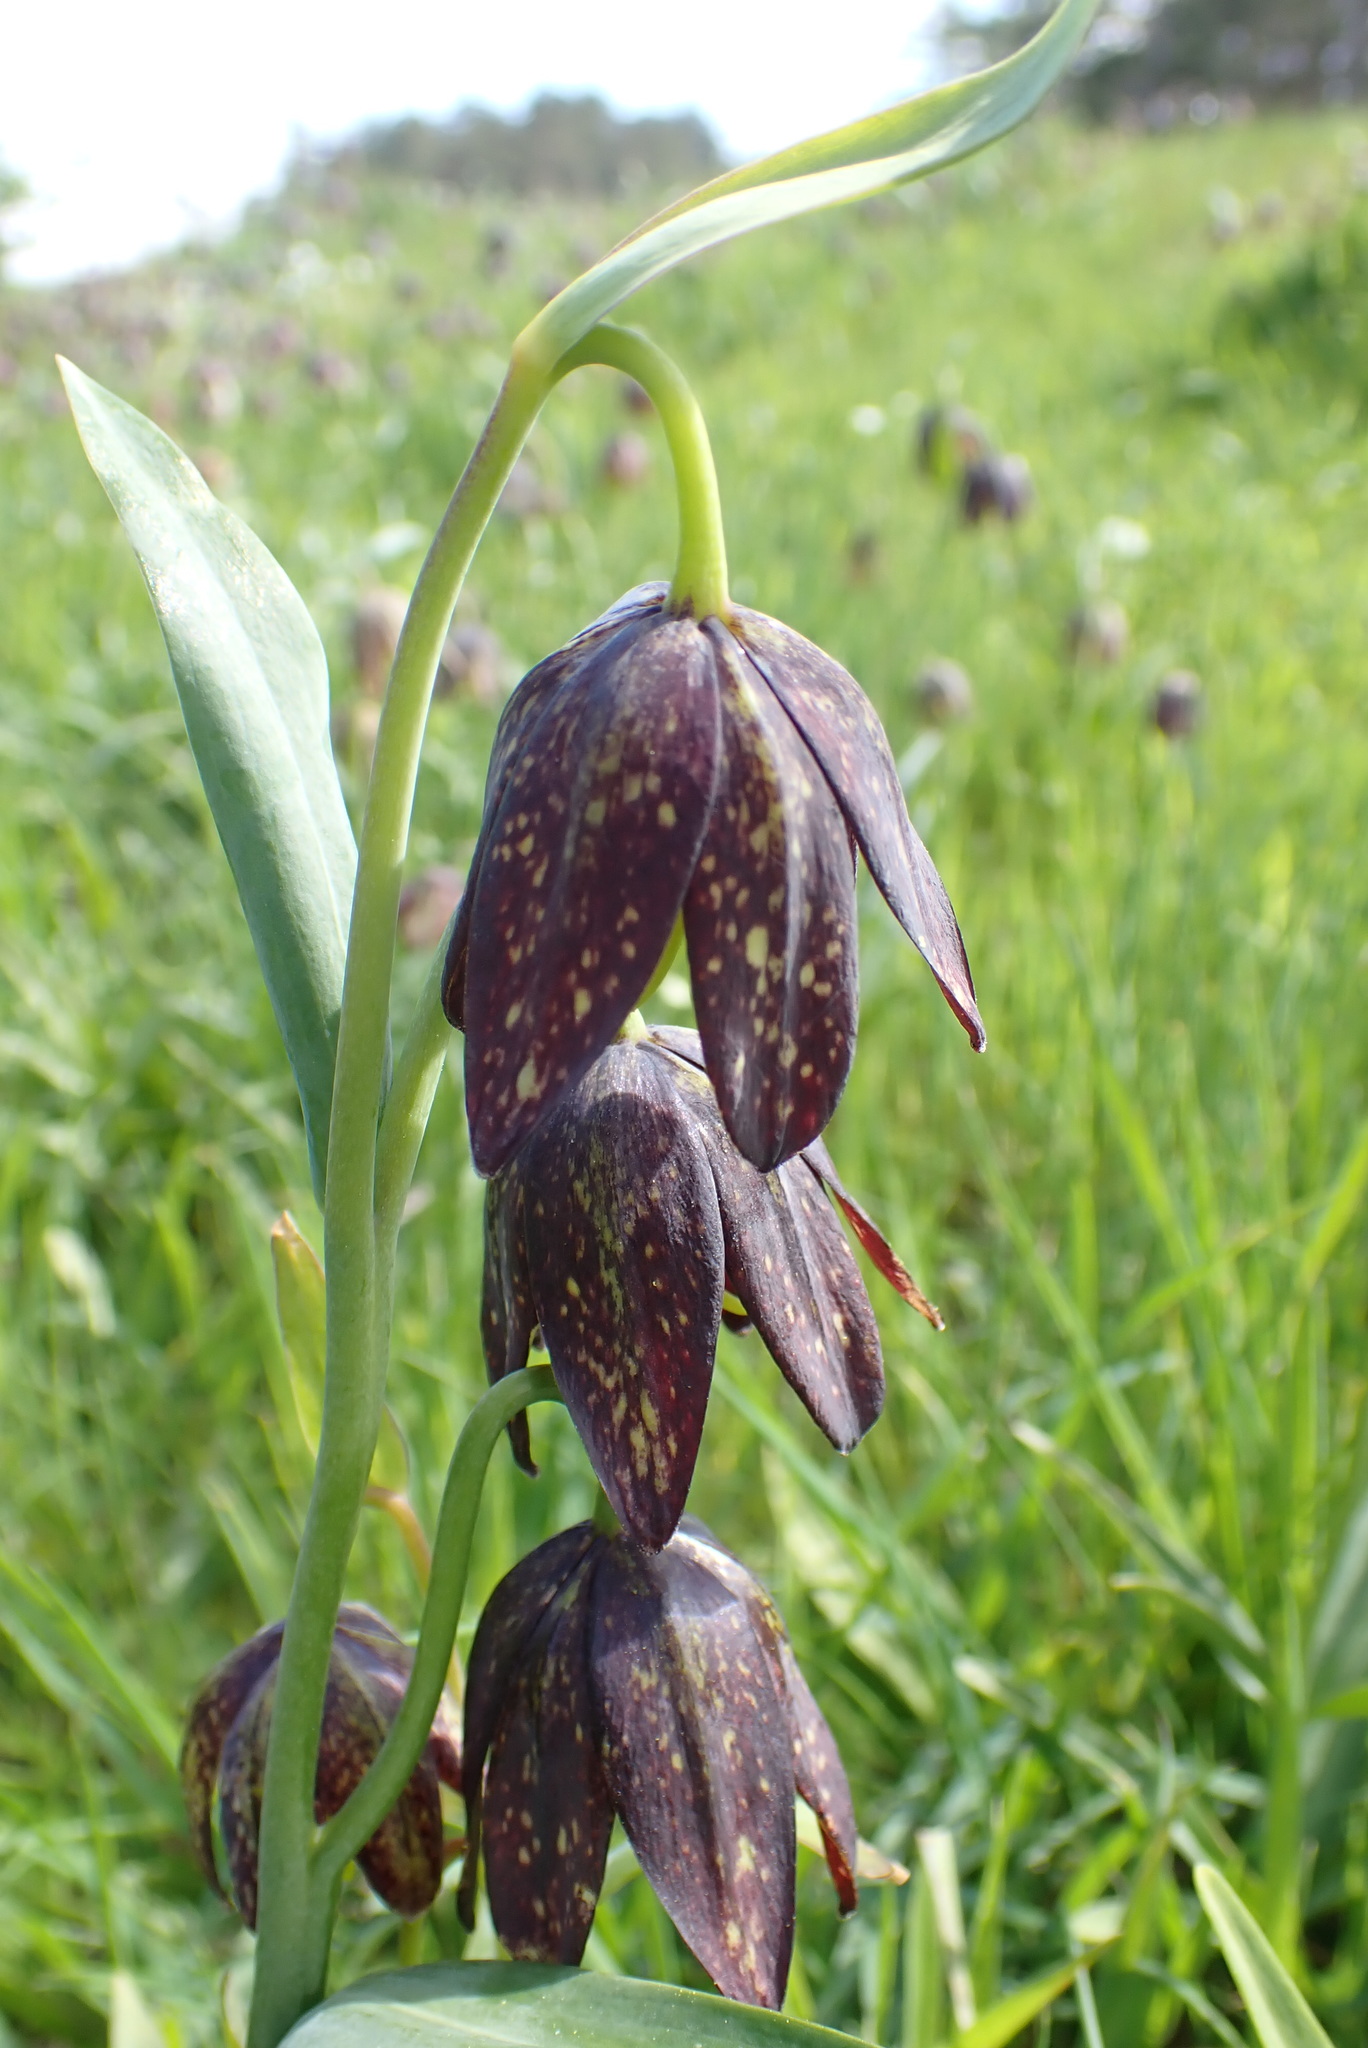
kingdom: Plantae
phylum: Tracheophyta
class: Liliopsida
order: Liliales
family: Liliaceae
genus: Fritillaria
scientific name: Fritillaria affinis
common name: Ojai fritillary
